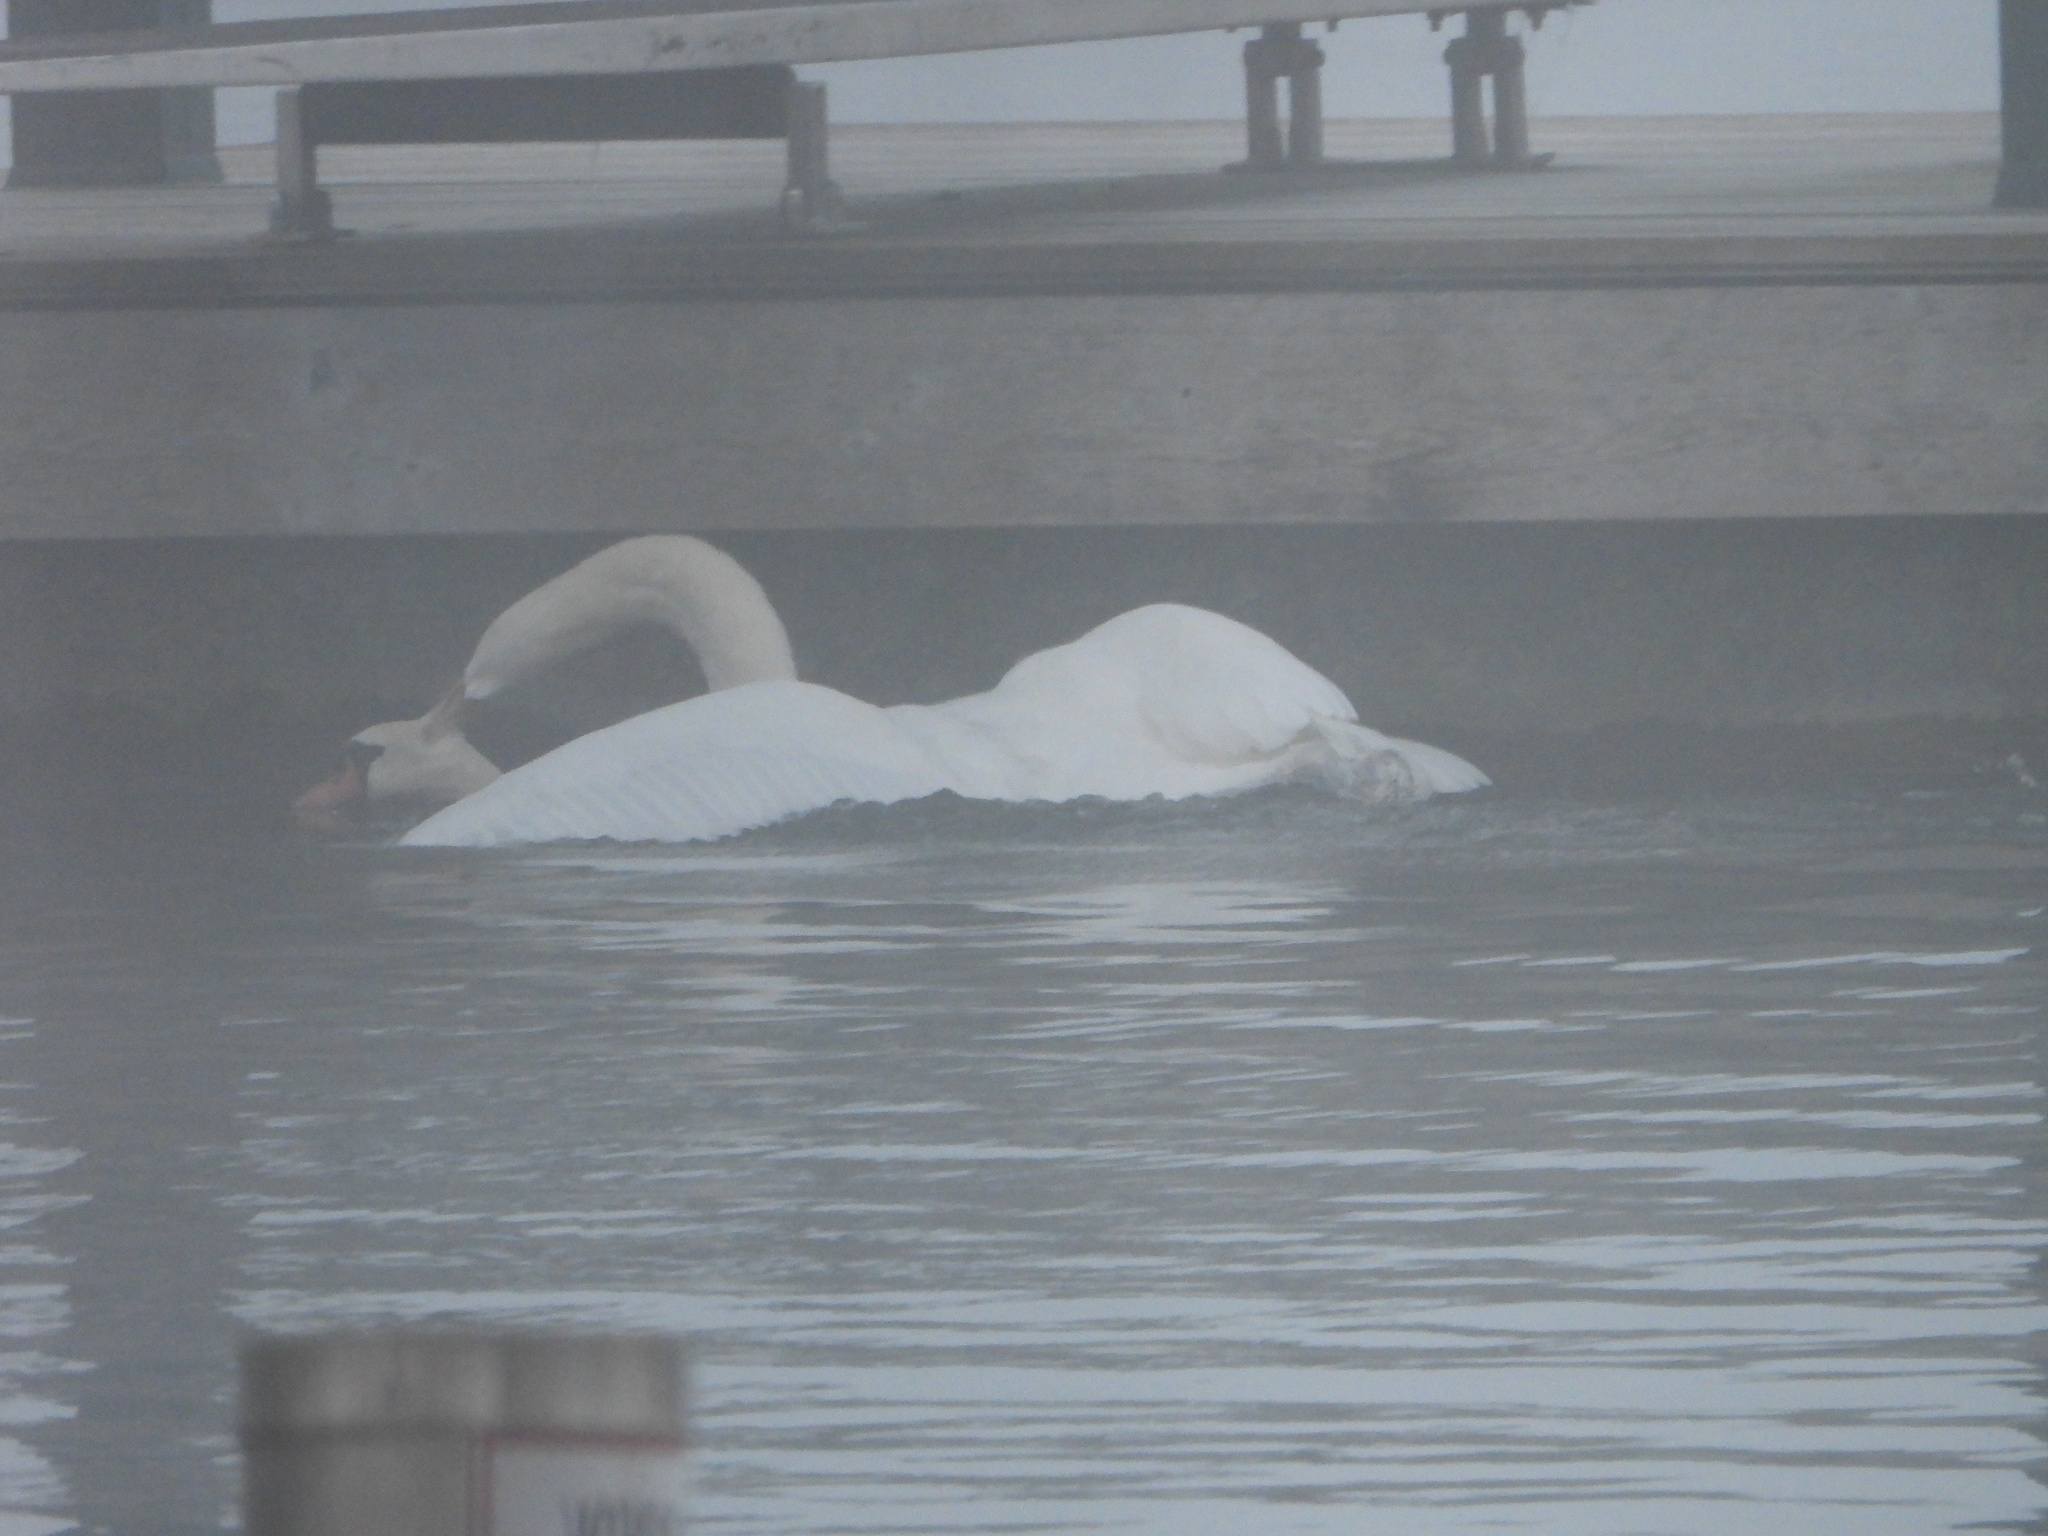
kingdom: Animalia
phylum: Chordata
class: Aves
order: Anseriformes
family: Anatidae
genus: Cygnus
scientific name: Cygnus olor
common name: Mute swan
